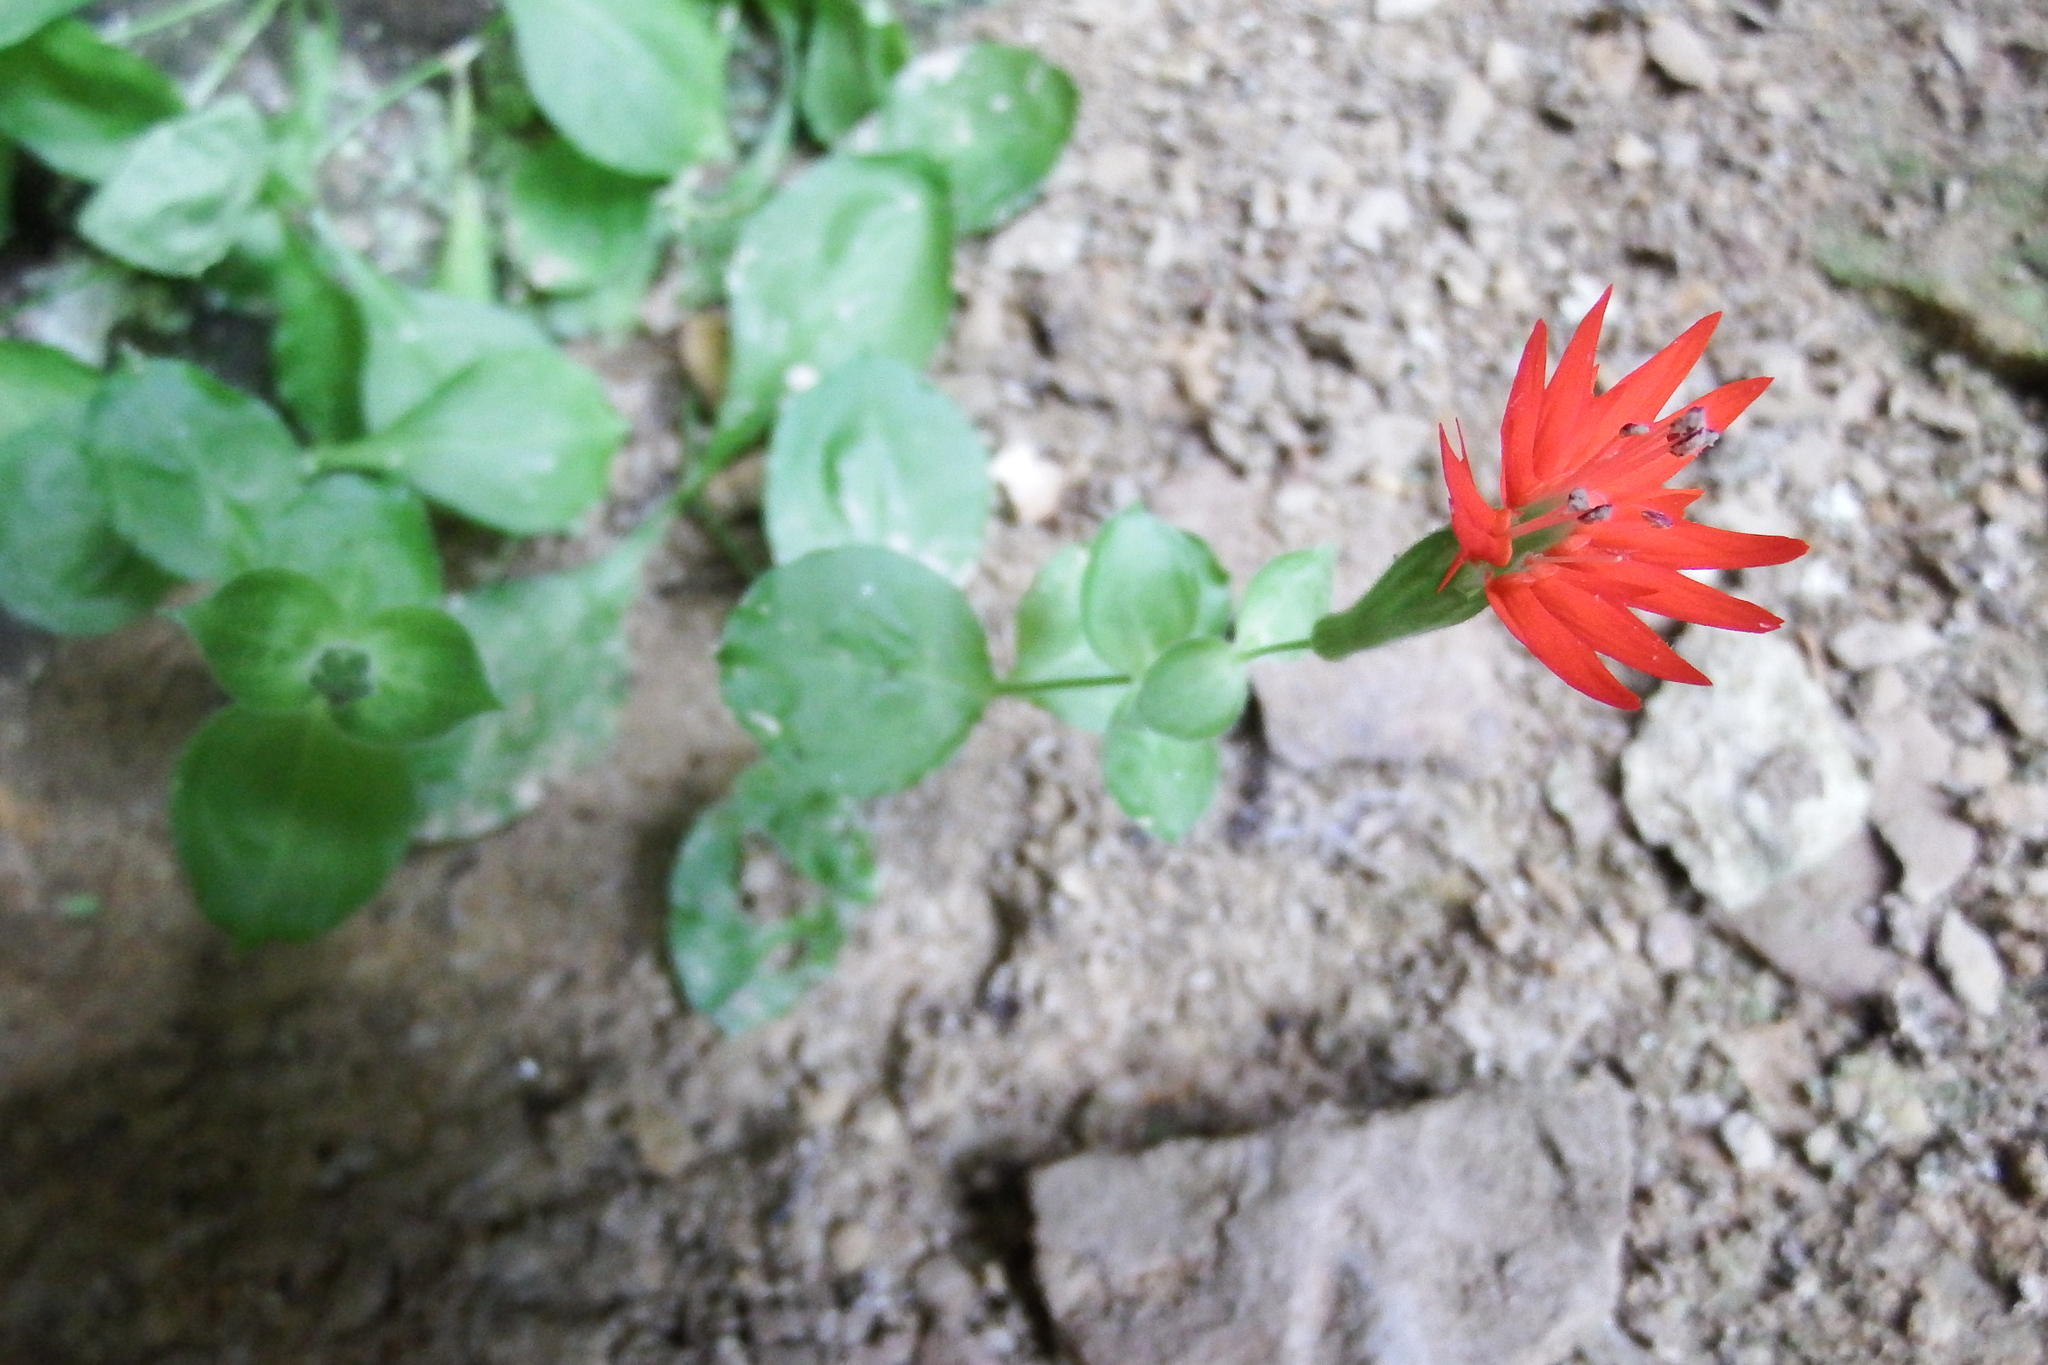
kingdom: Plantae
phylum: Tracheophyta
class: Magnoliopsida
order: Caryophyllales
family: Caryophyllaceae
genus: Silene
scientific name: Silene rotundifolia
